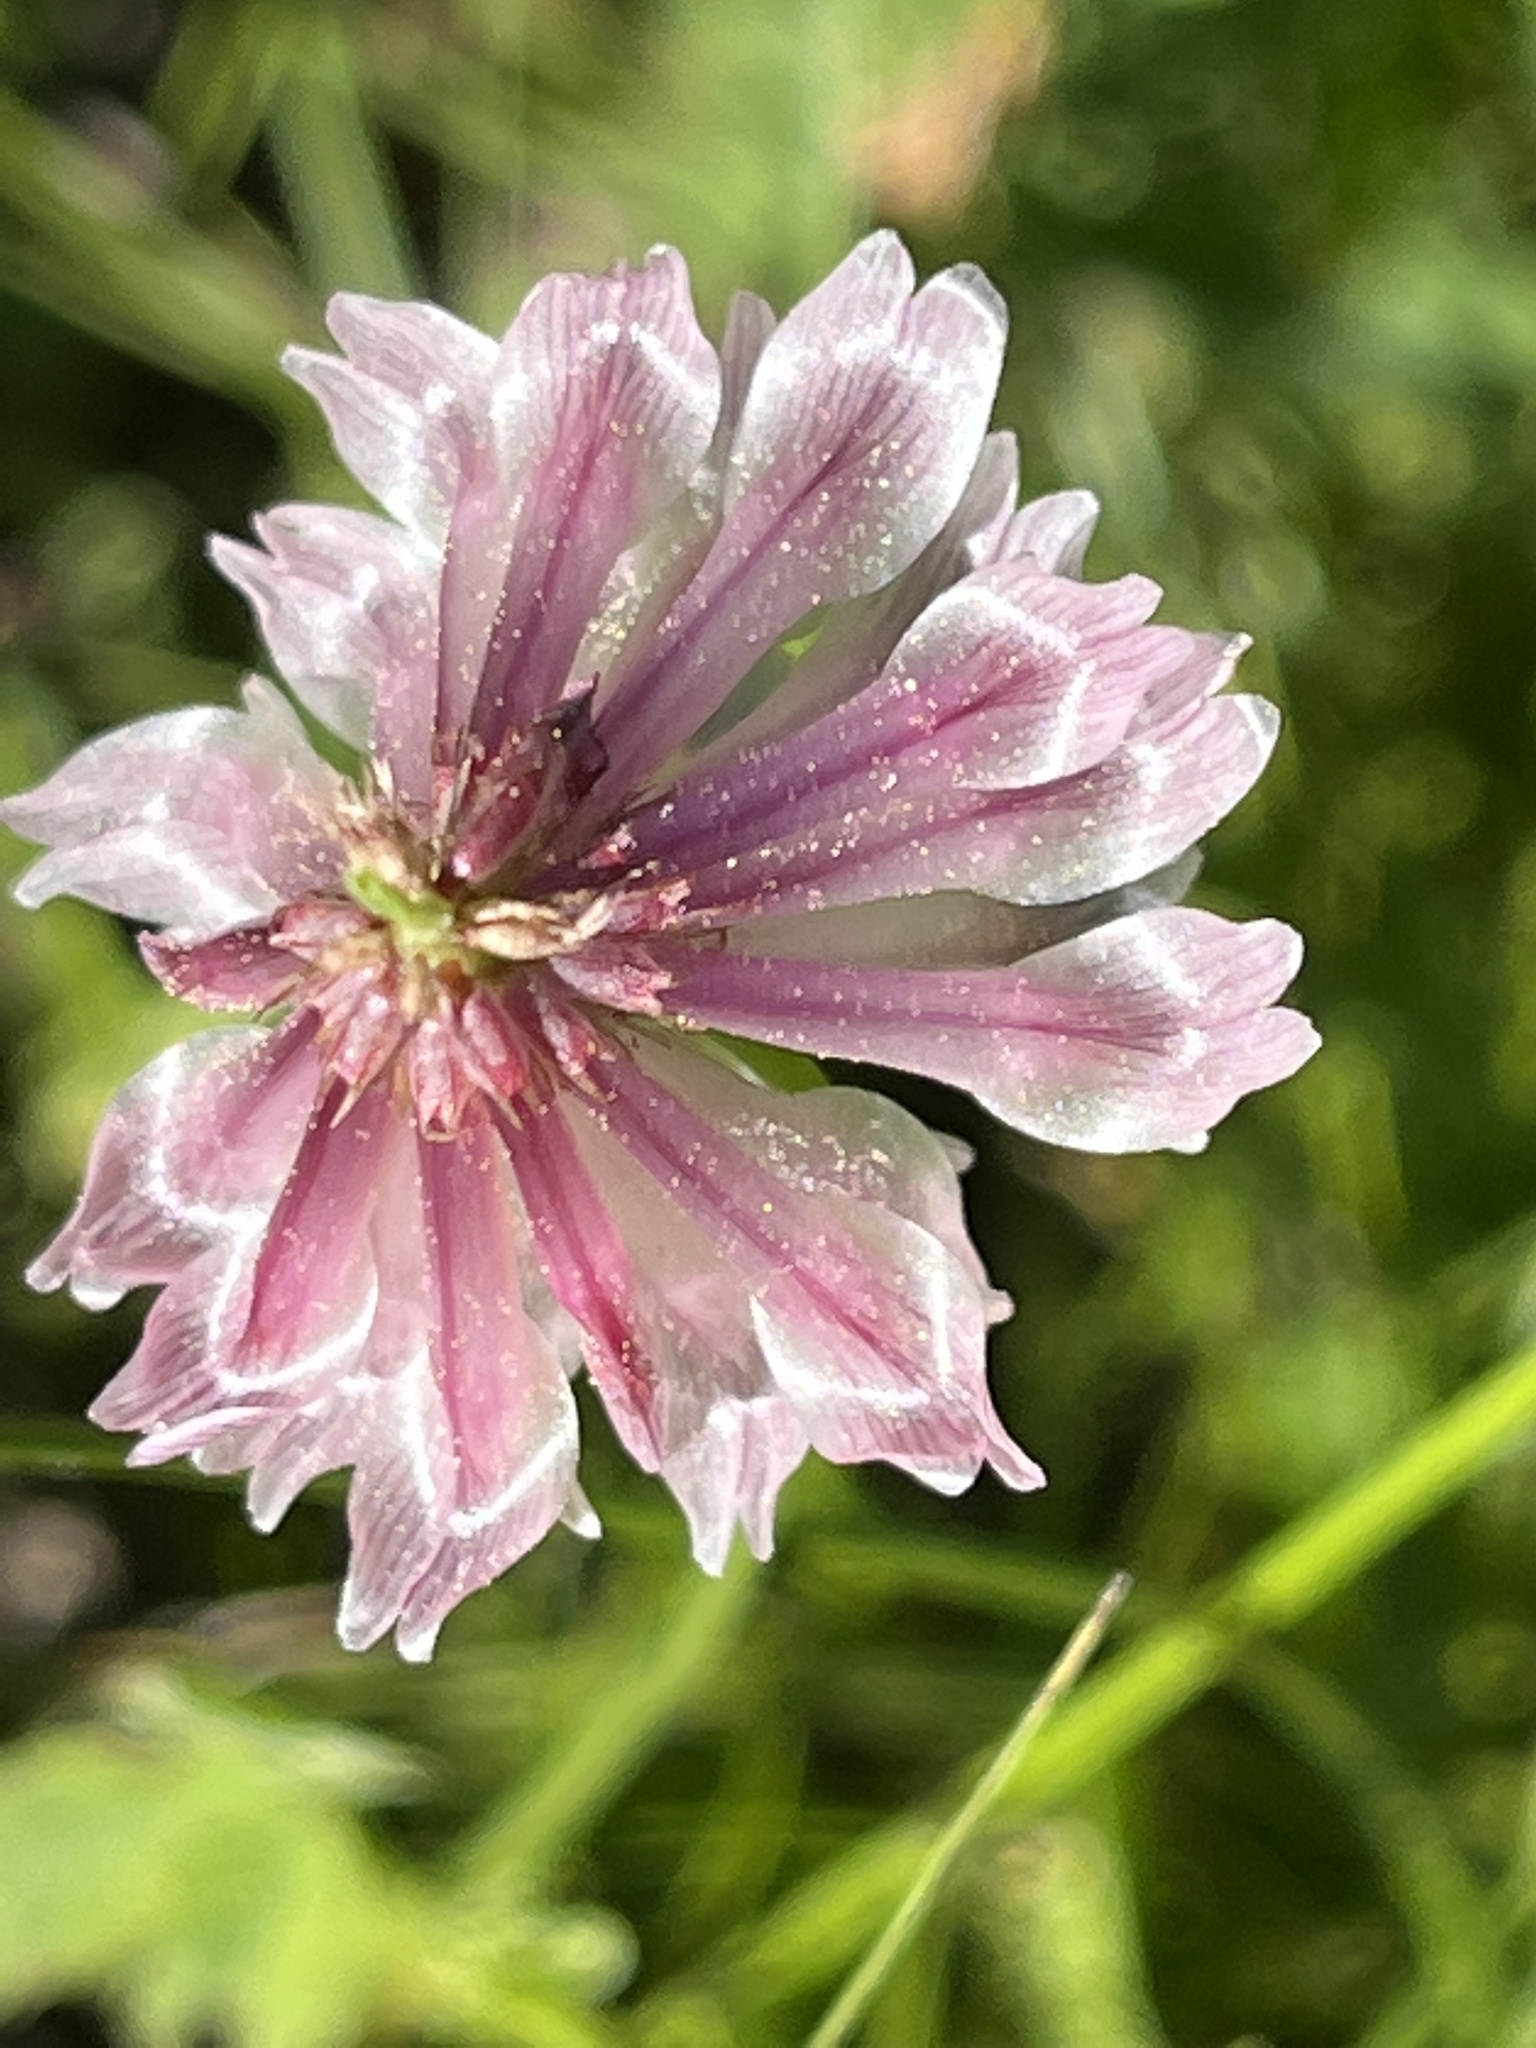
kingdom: Plantae
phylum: Tracheophyta
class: Magnoliopsida
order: Fabales
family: Fabaceae
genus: Trifolium
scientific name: Trifolium productum
